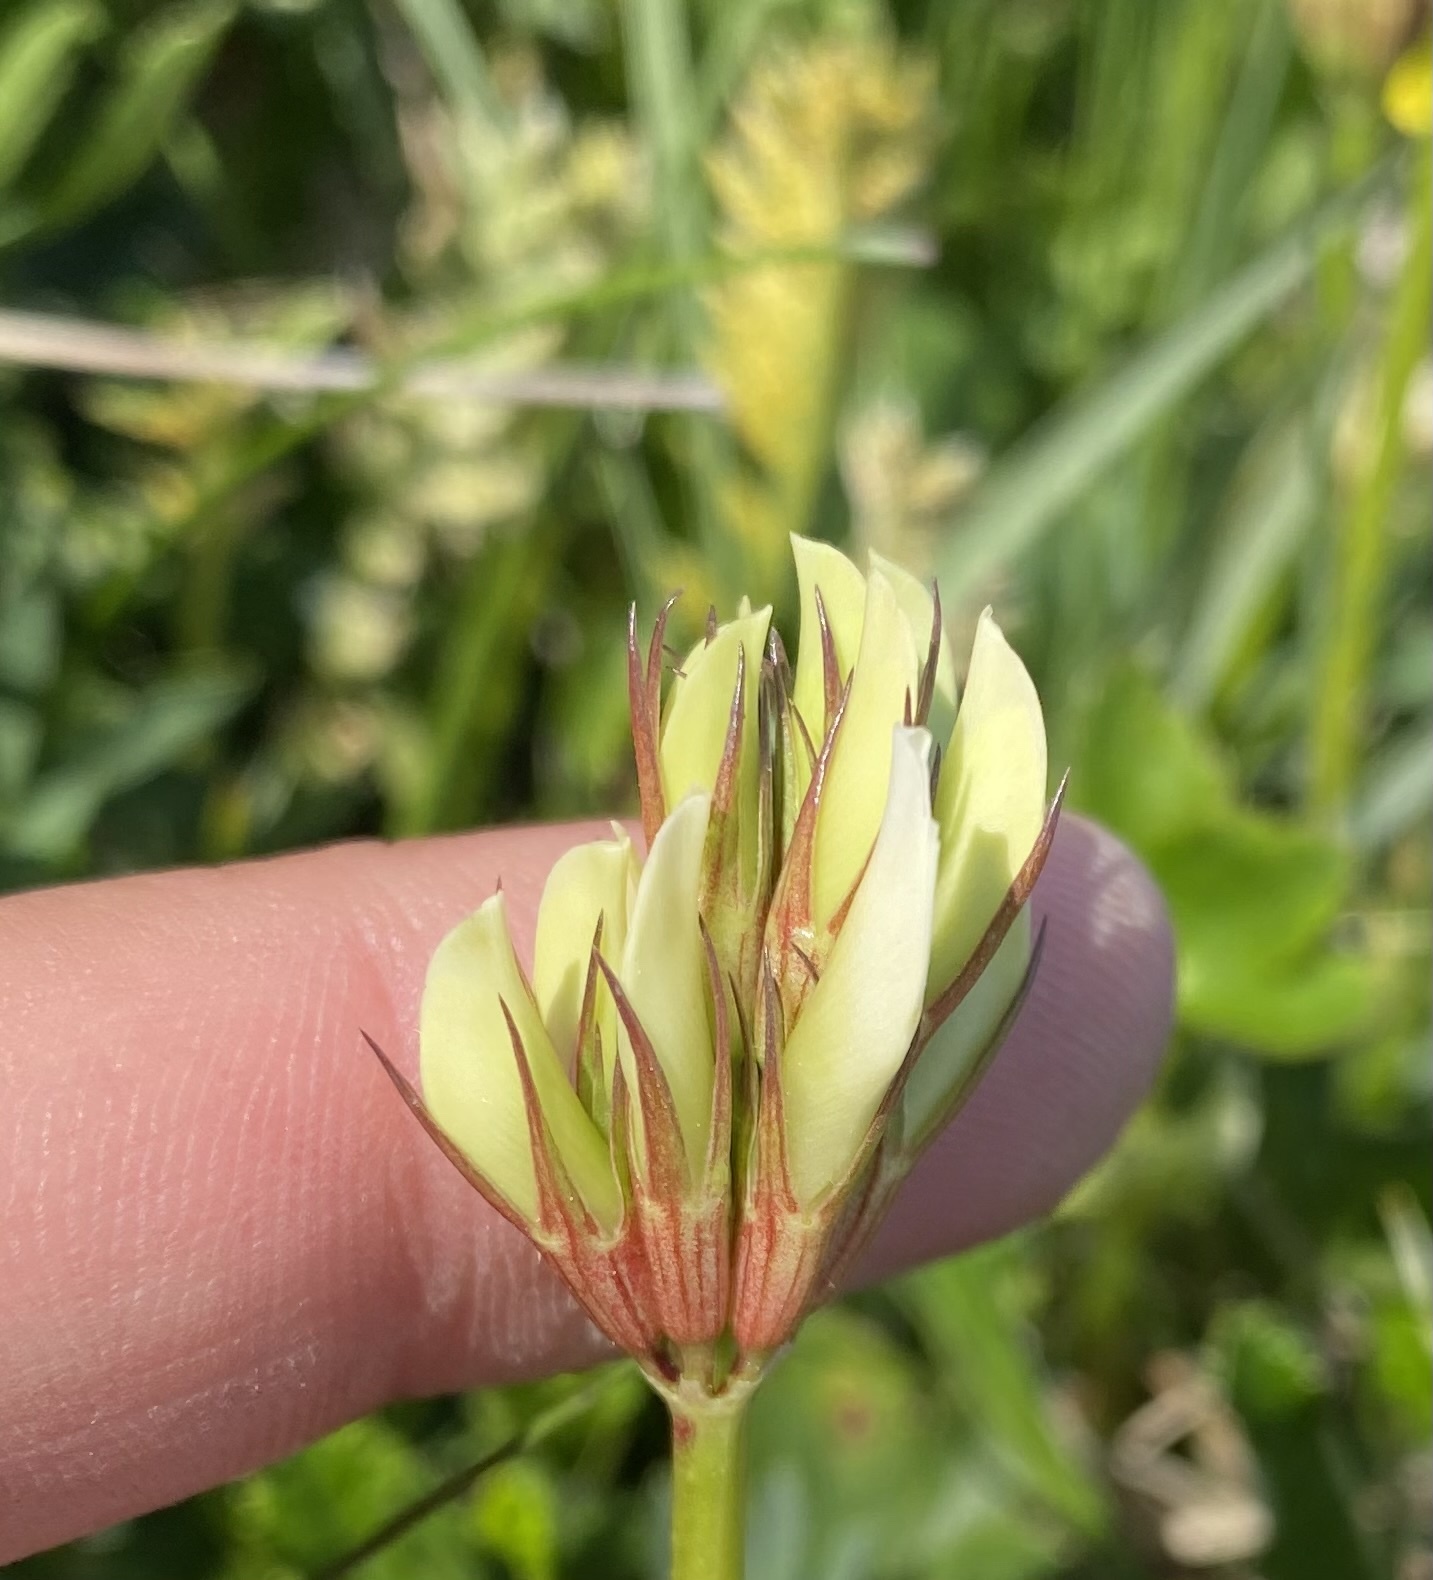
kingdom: Plantae
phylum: Tracheophyta
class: Magnoliopsida
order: Fabales
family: Fabaceae
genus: Trifolium
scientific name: Trifolium polyphyllum
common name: Many-leaf clover
